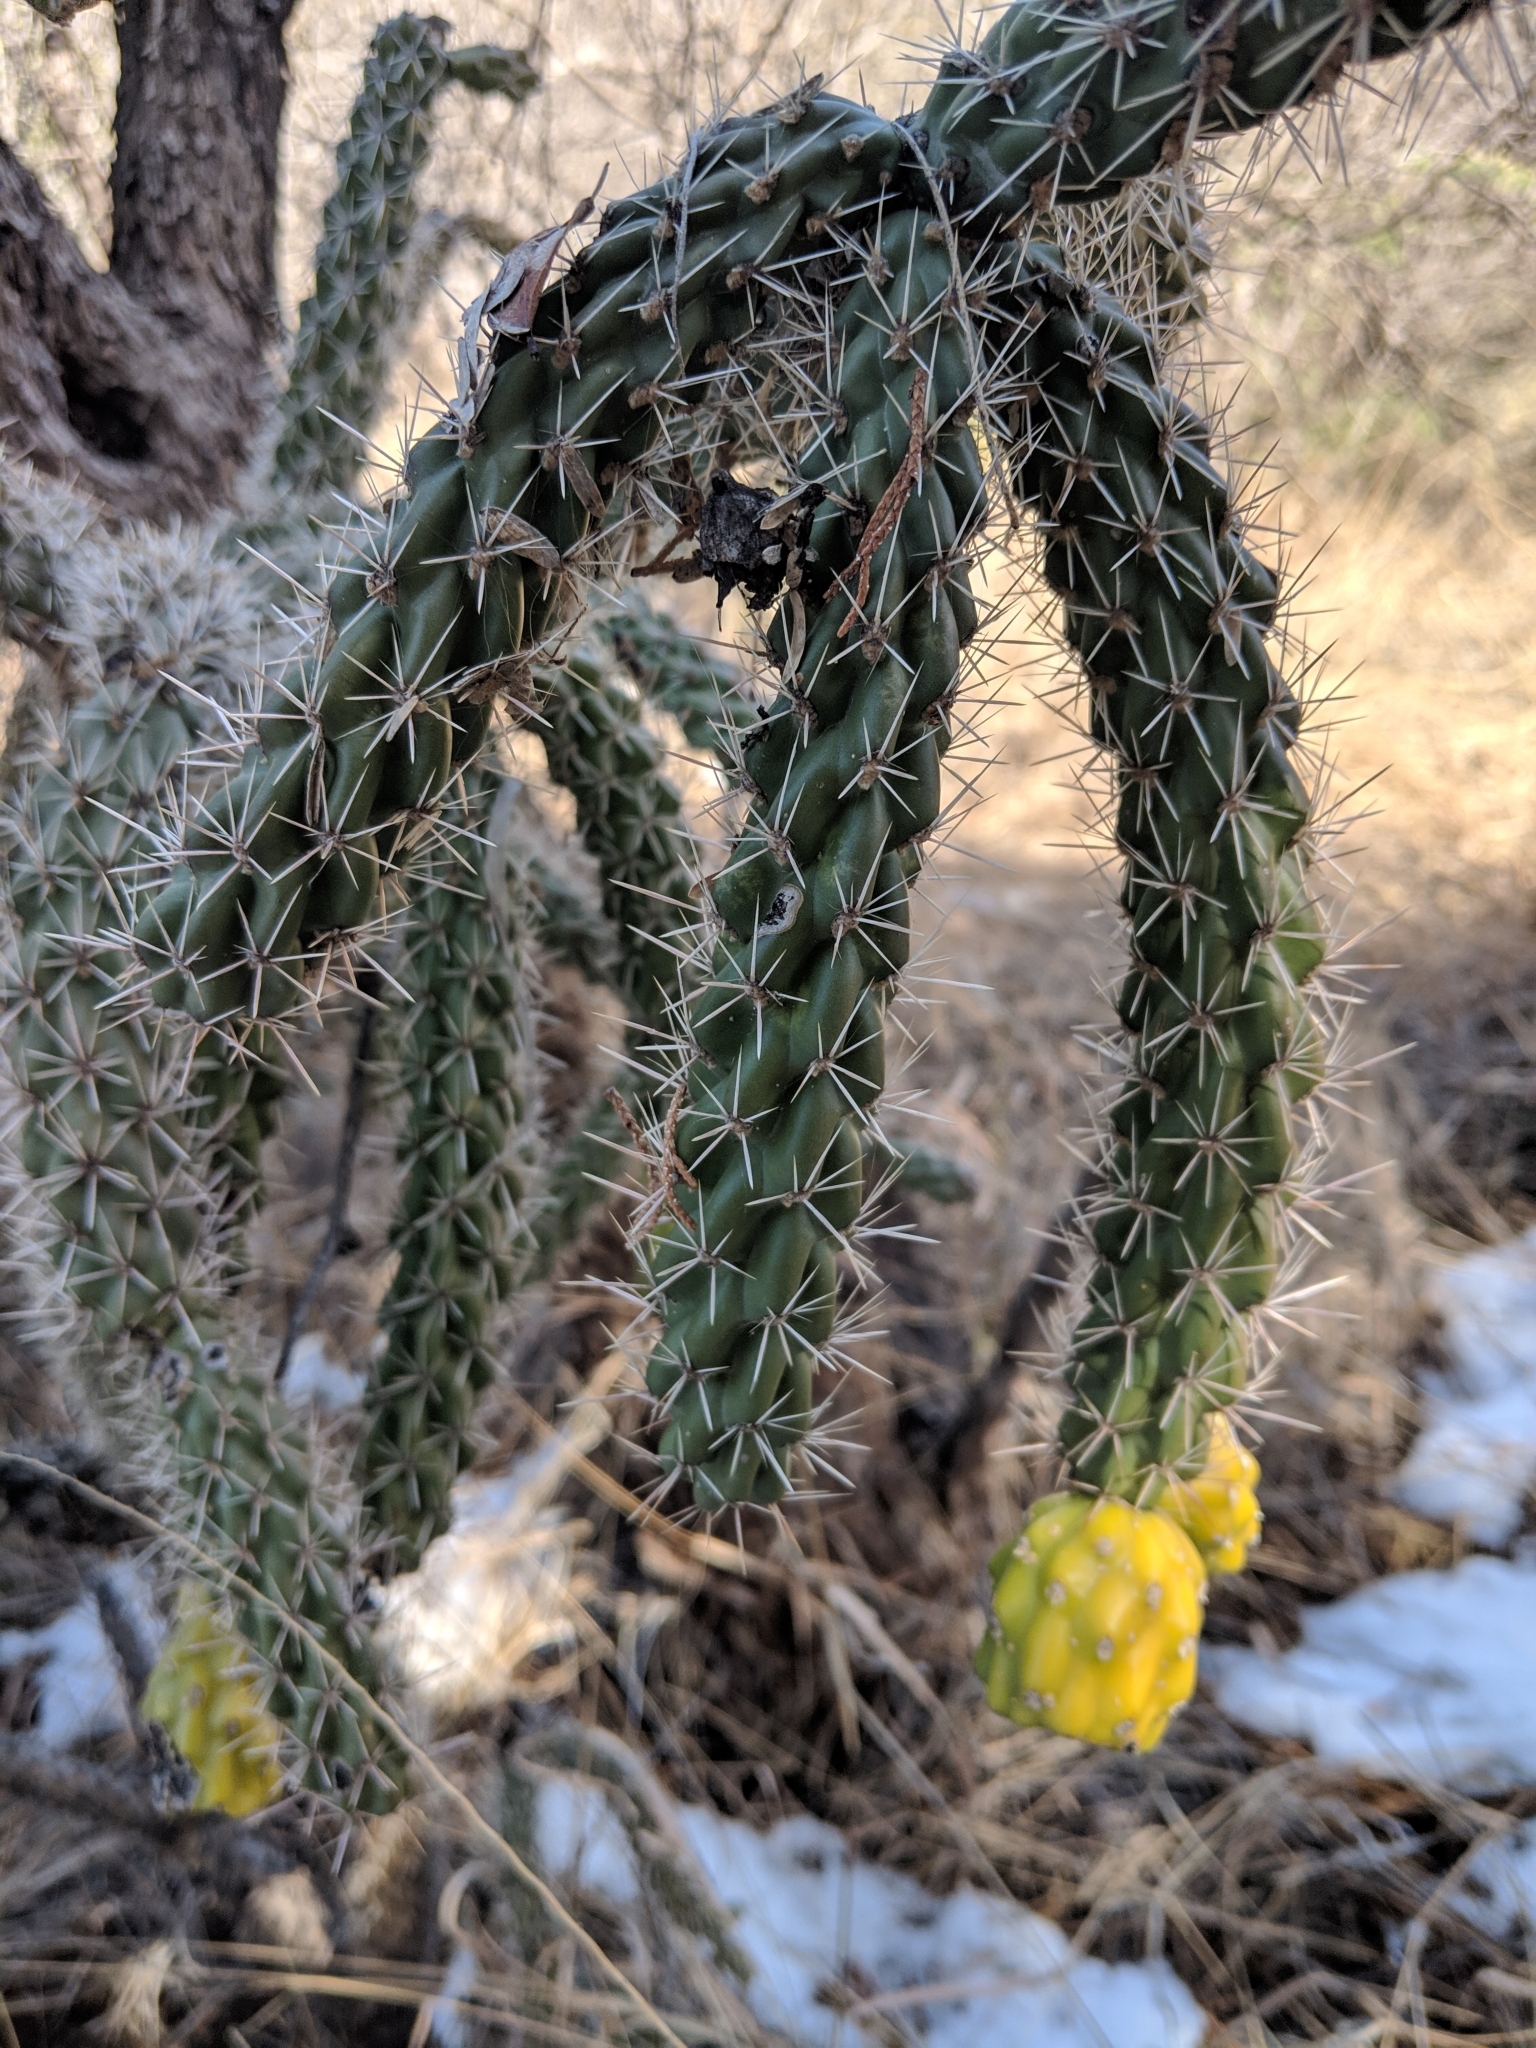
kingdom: Plantae
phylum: Tracheophyta
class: Magnoliopsida
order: Caryophyllales
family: Cactaceae
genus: Cylindropuntia
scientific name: Cylindropuntia imbricata
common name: Candelabrum cactus
